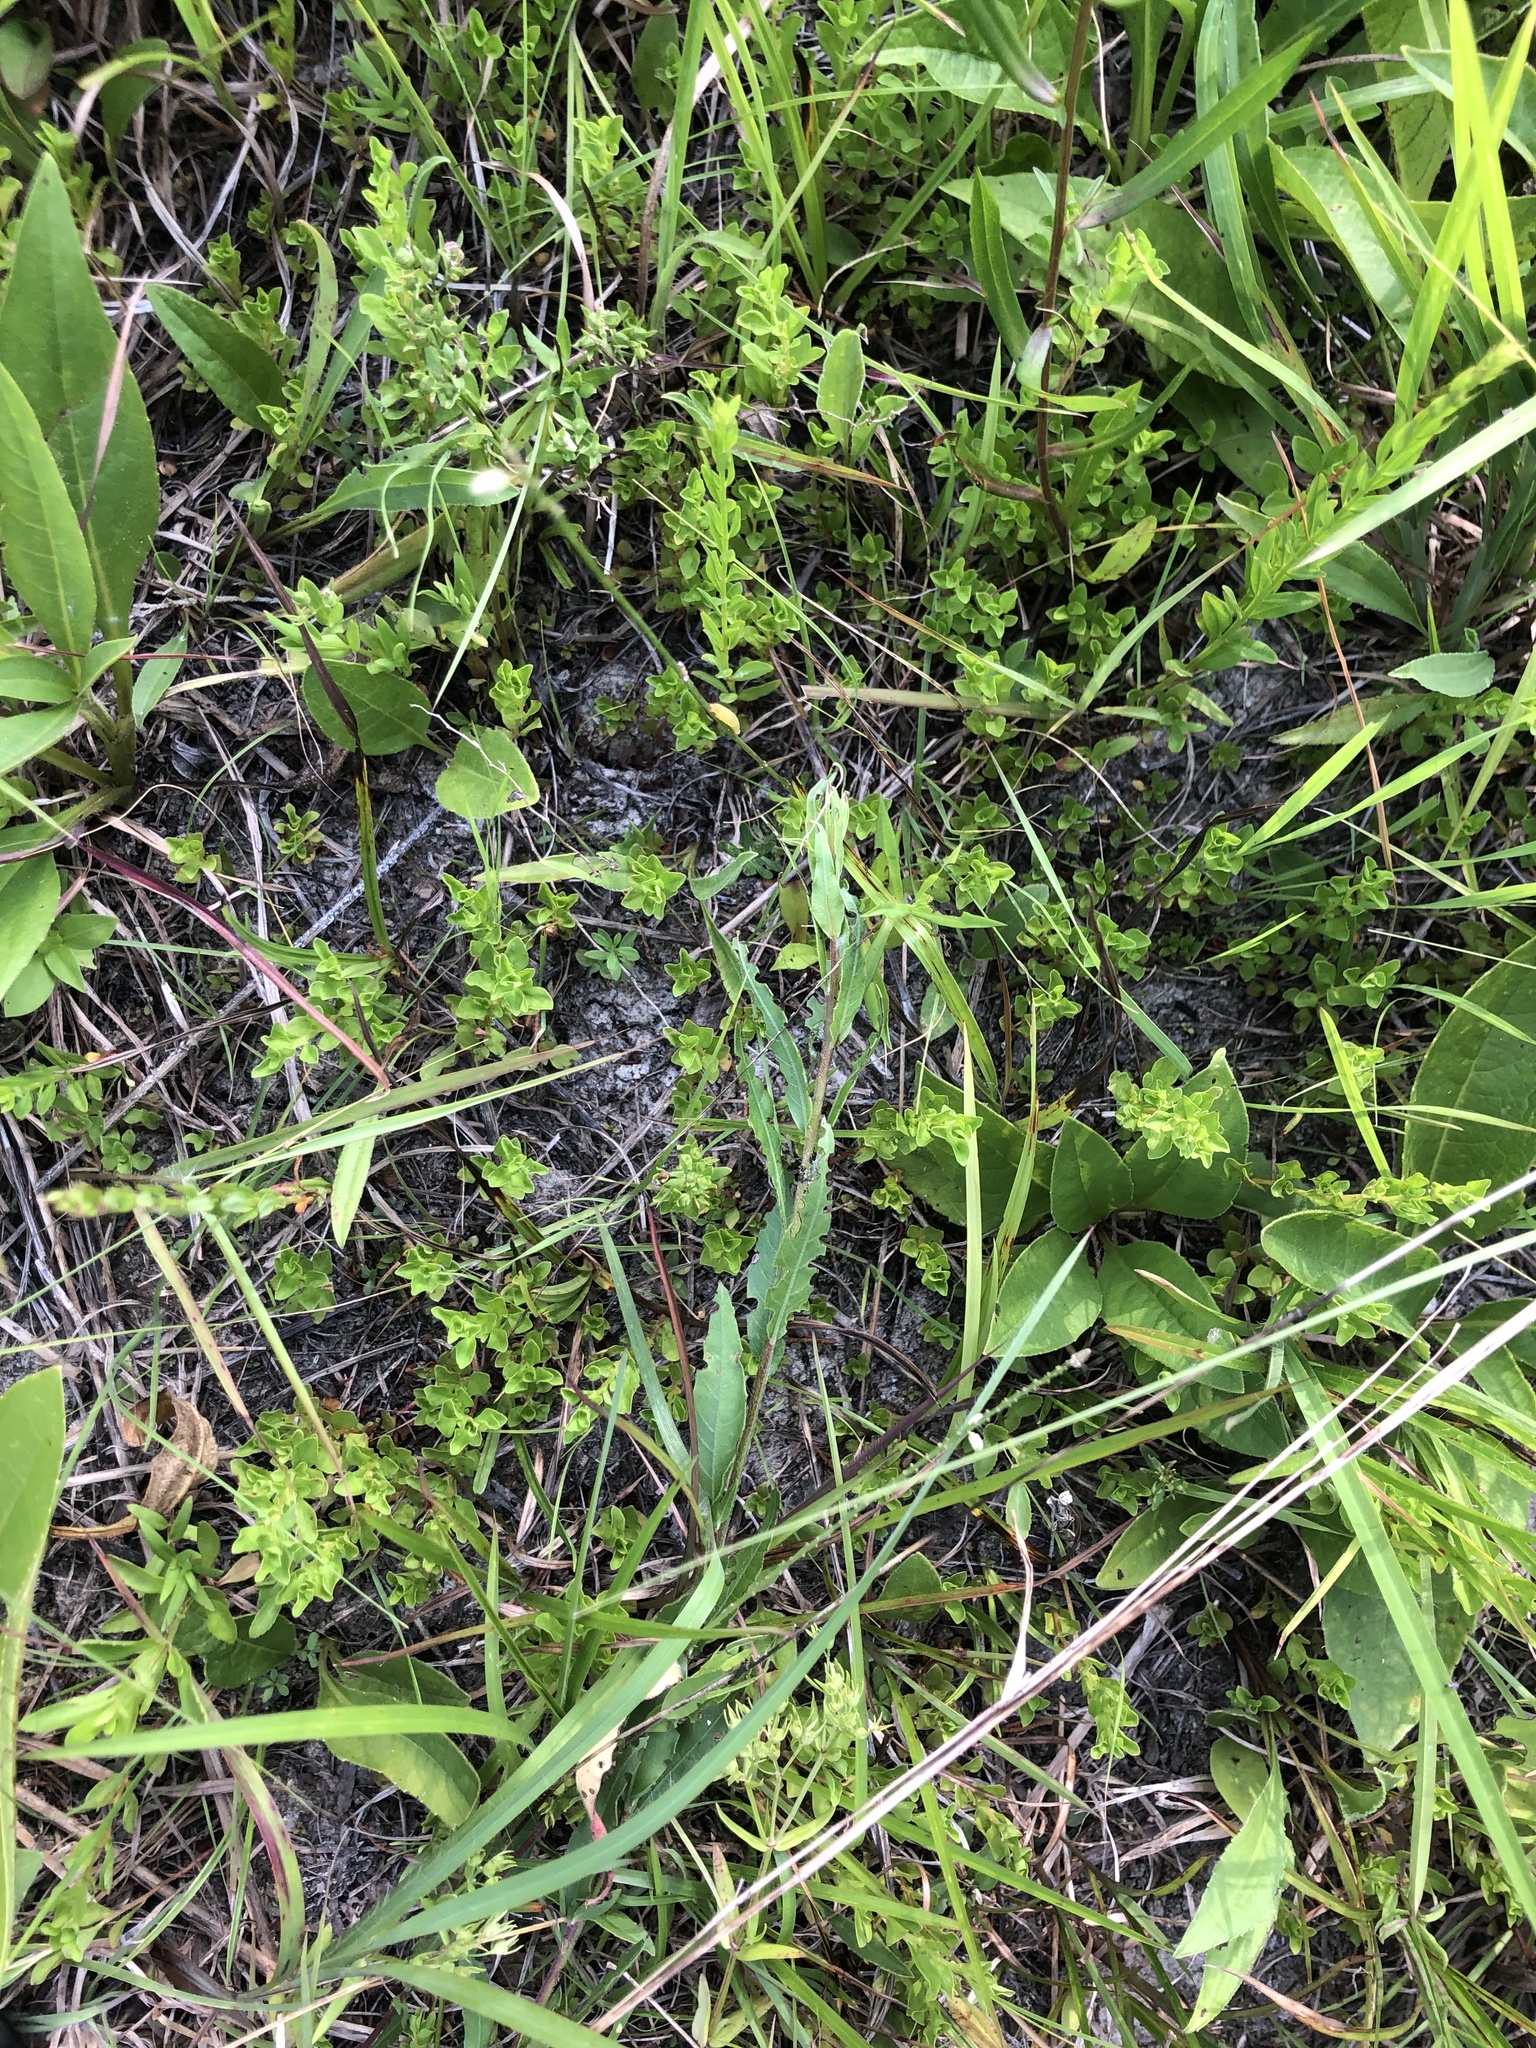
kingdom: Plantae
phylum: Tracheophyta
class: Magnoliopsida
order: Myrtales
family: Onagraceae
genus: Ludwigia
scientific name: Ludwigia microcarpa
